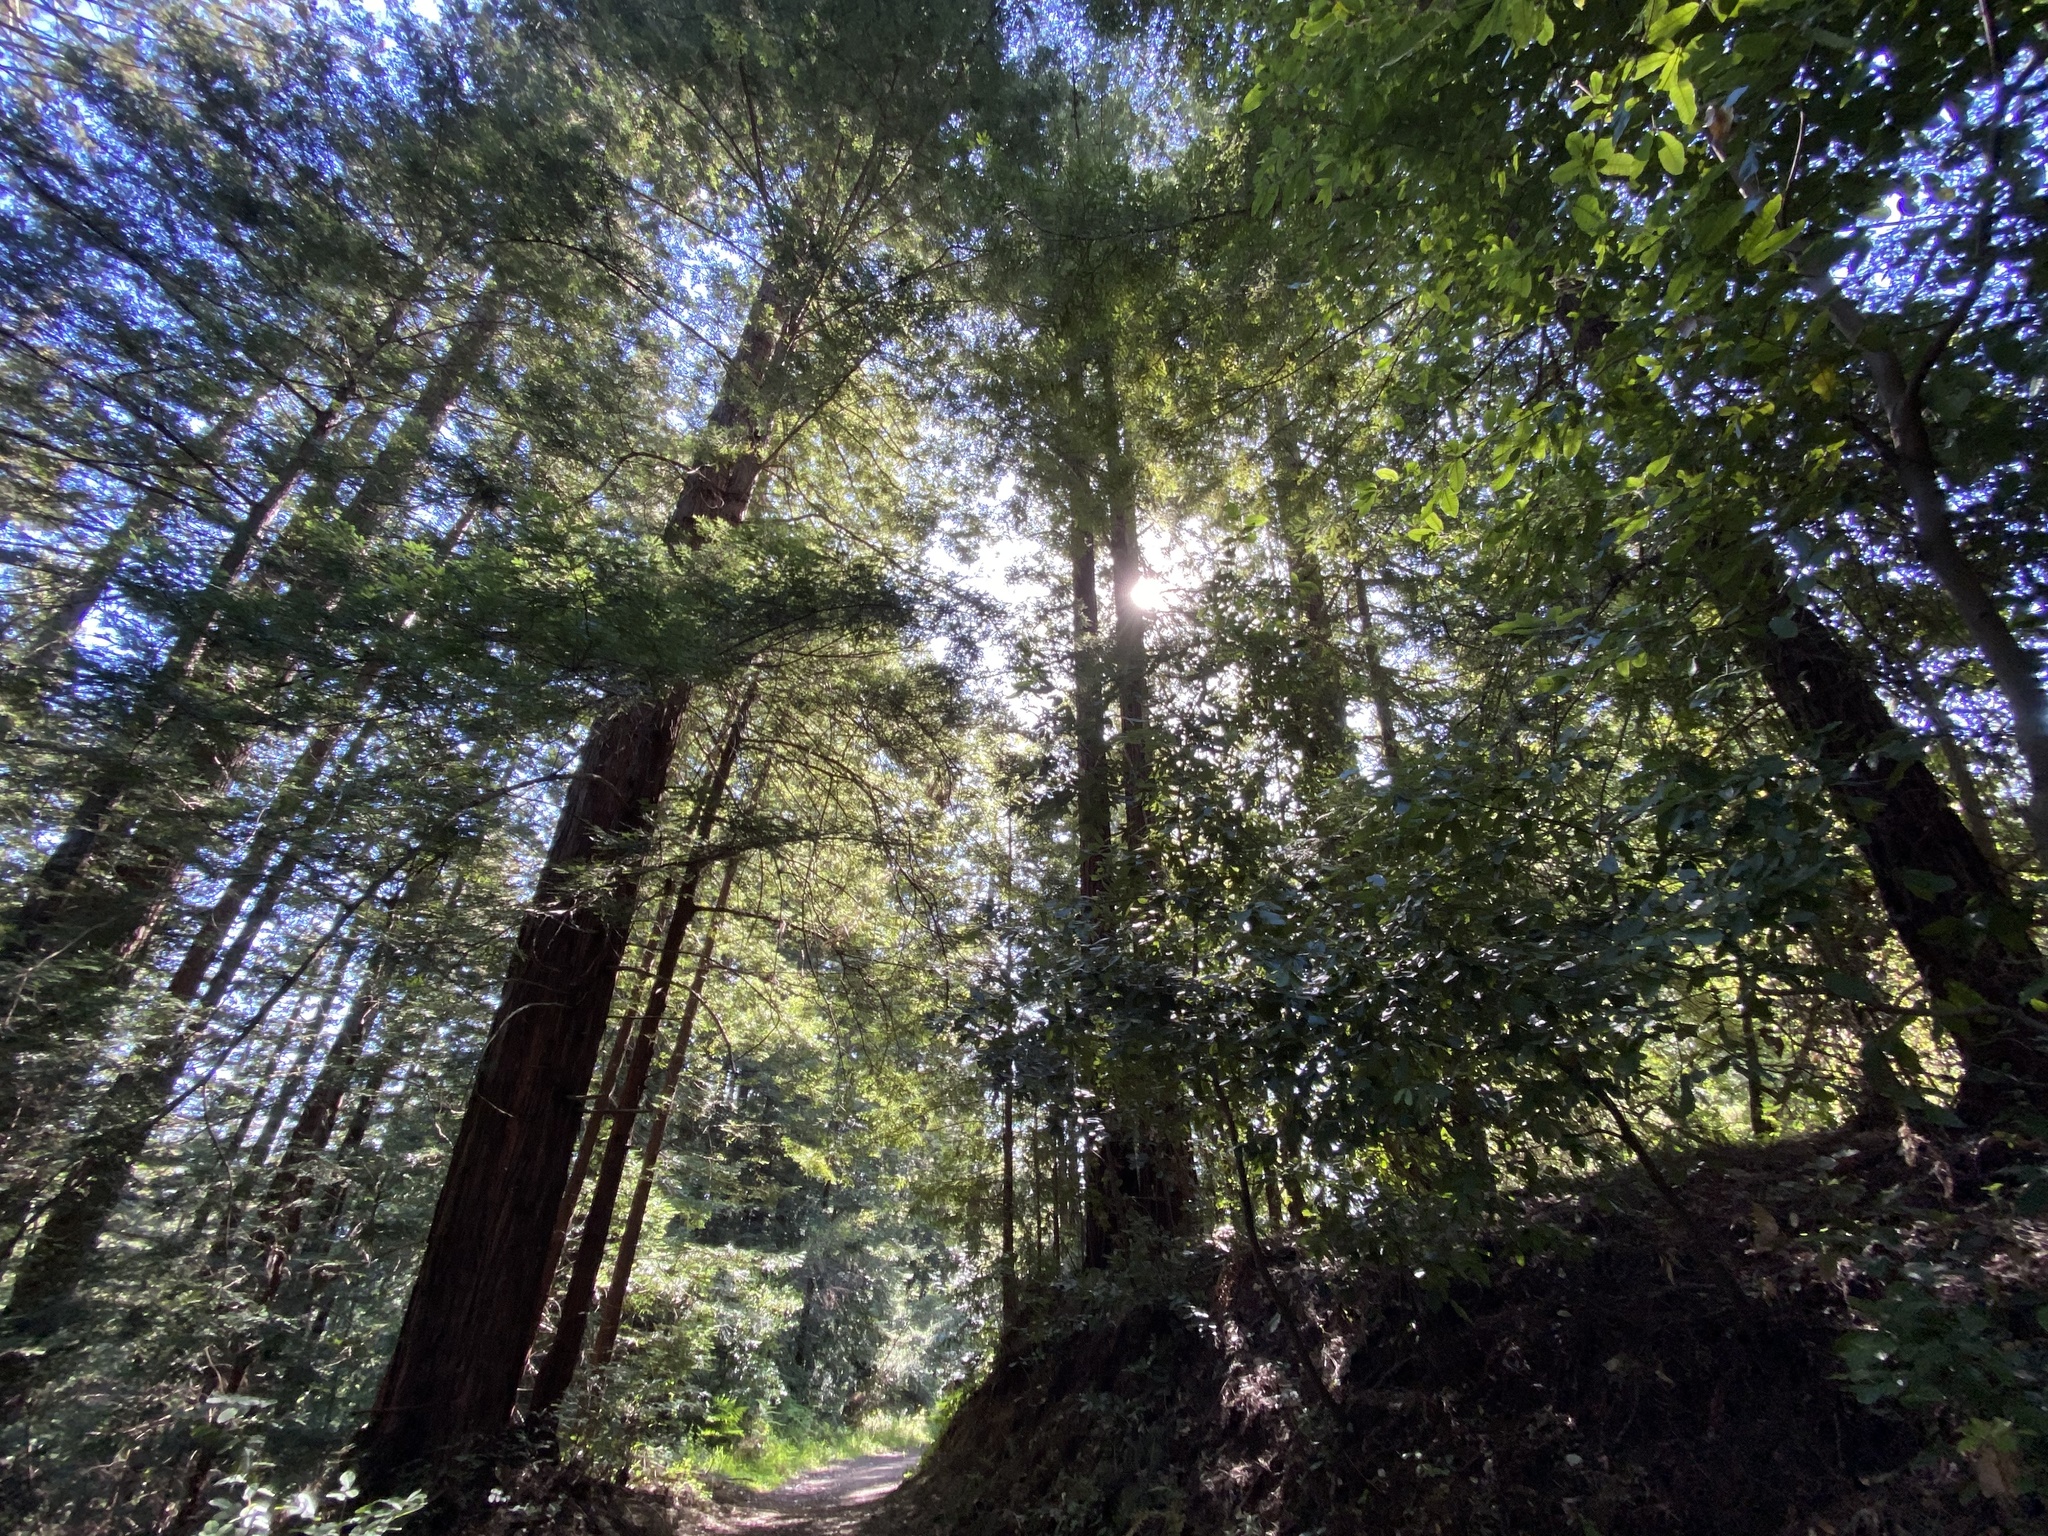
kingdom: Plantae
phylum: Tracheophyta
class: Pinopsida
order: Pinales
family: Cupressaceae
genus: Sequoia
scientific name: Sequoia sempervirens
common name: Coast redwood
